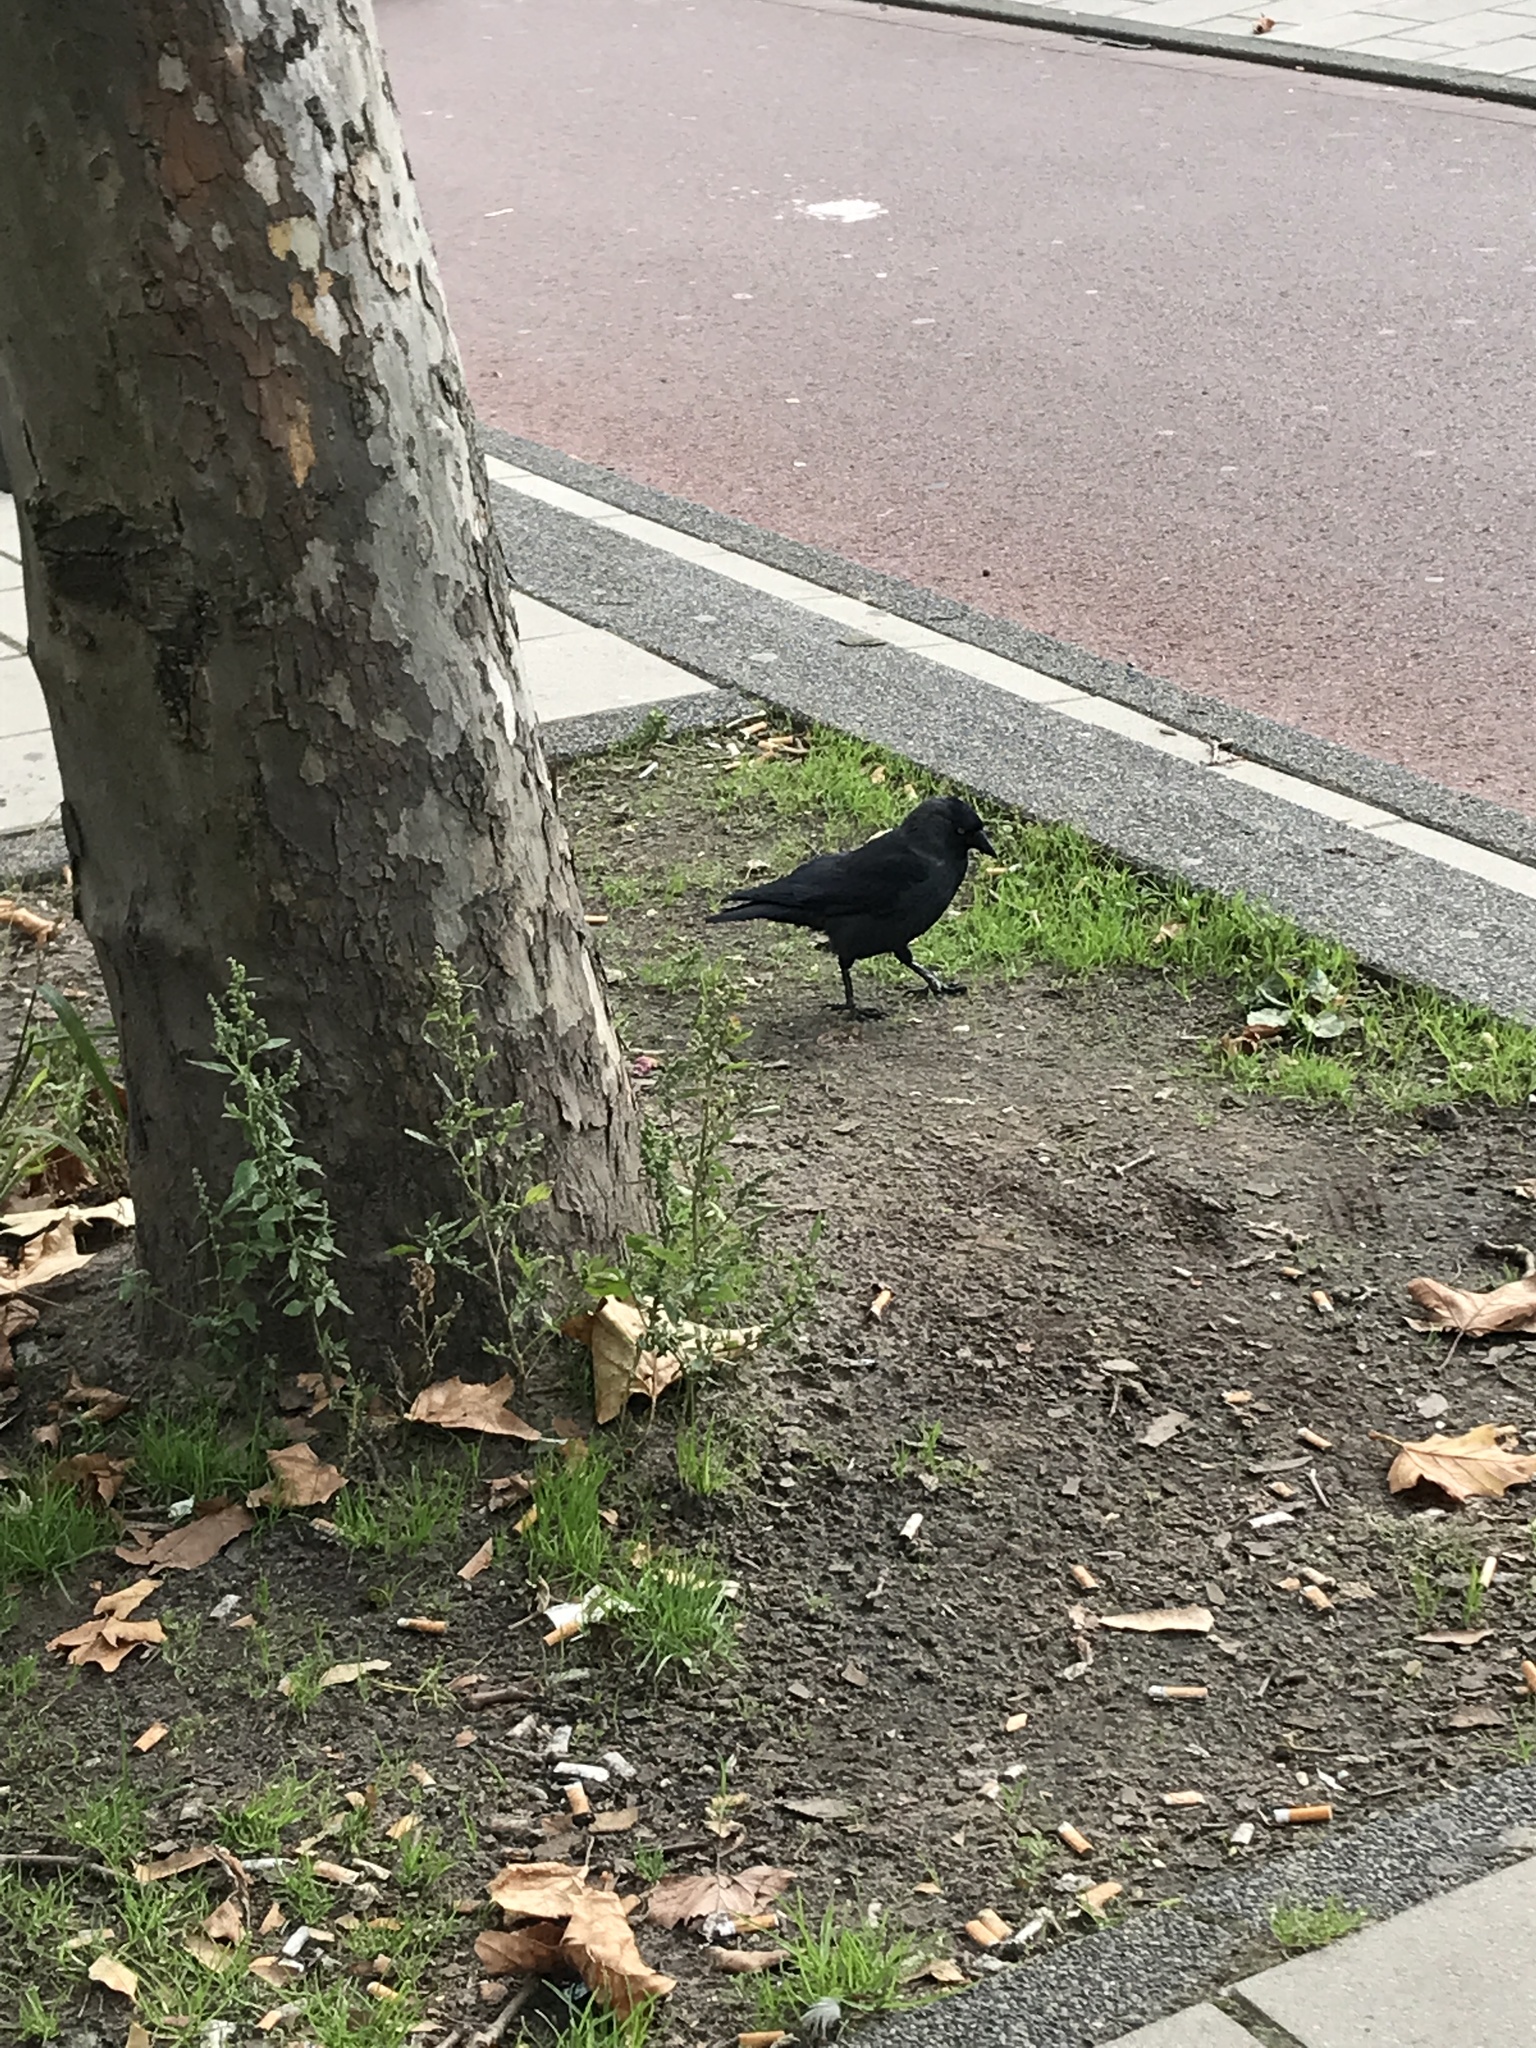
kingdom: Animalia
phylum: Chordata
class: Aves
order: Passeriformes
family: Corvidae
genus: Coloeus
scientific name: Coloeus monedula
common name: Western jackdaw
